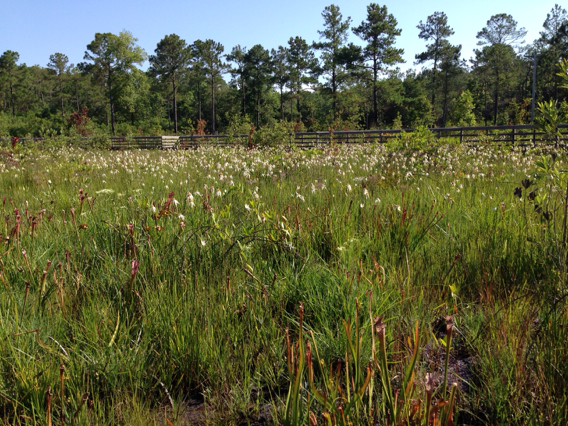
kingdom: Plantae
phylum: Tracheophyta
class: Liliopsida
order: Poales
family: Cyperaceae
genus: Rhynchospora
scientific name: Rhynchospora colorata
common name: Star sedge
